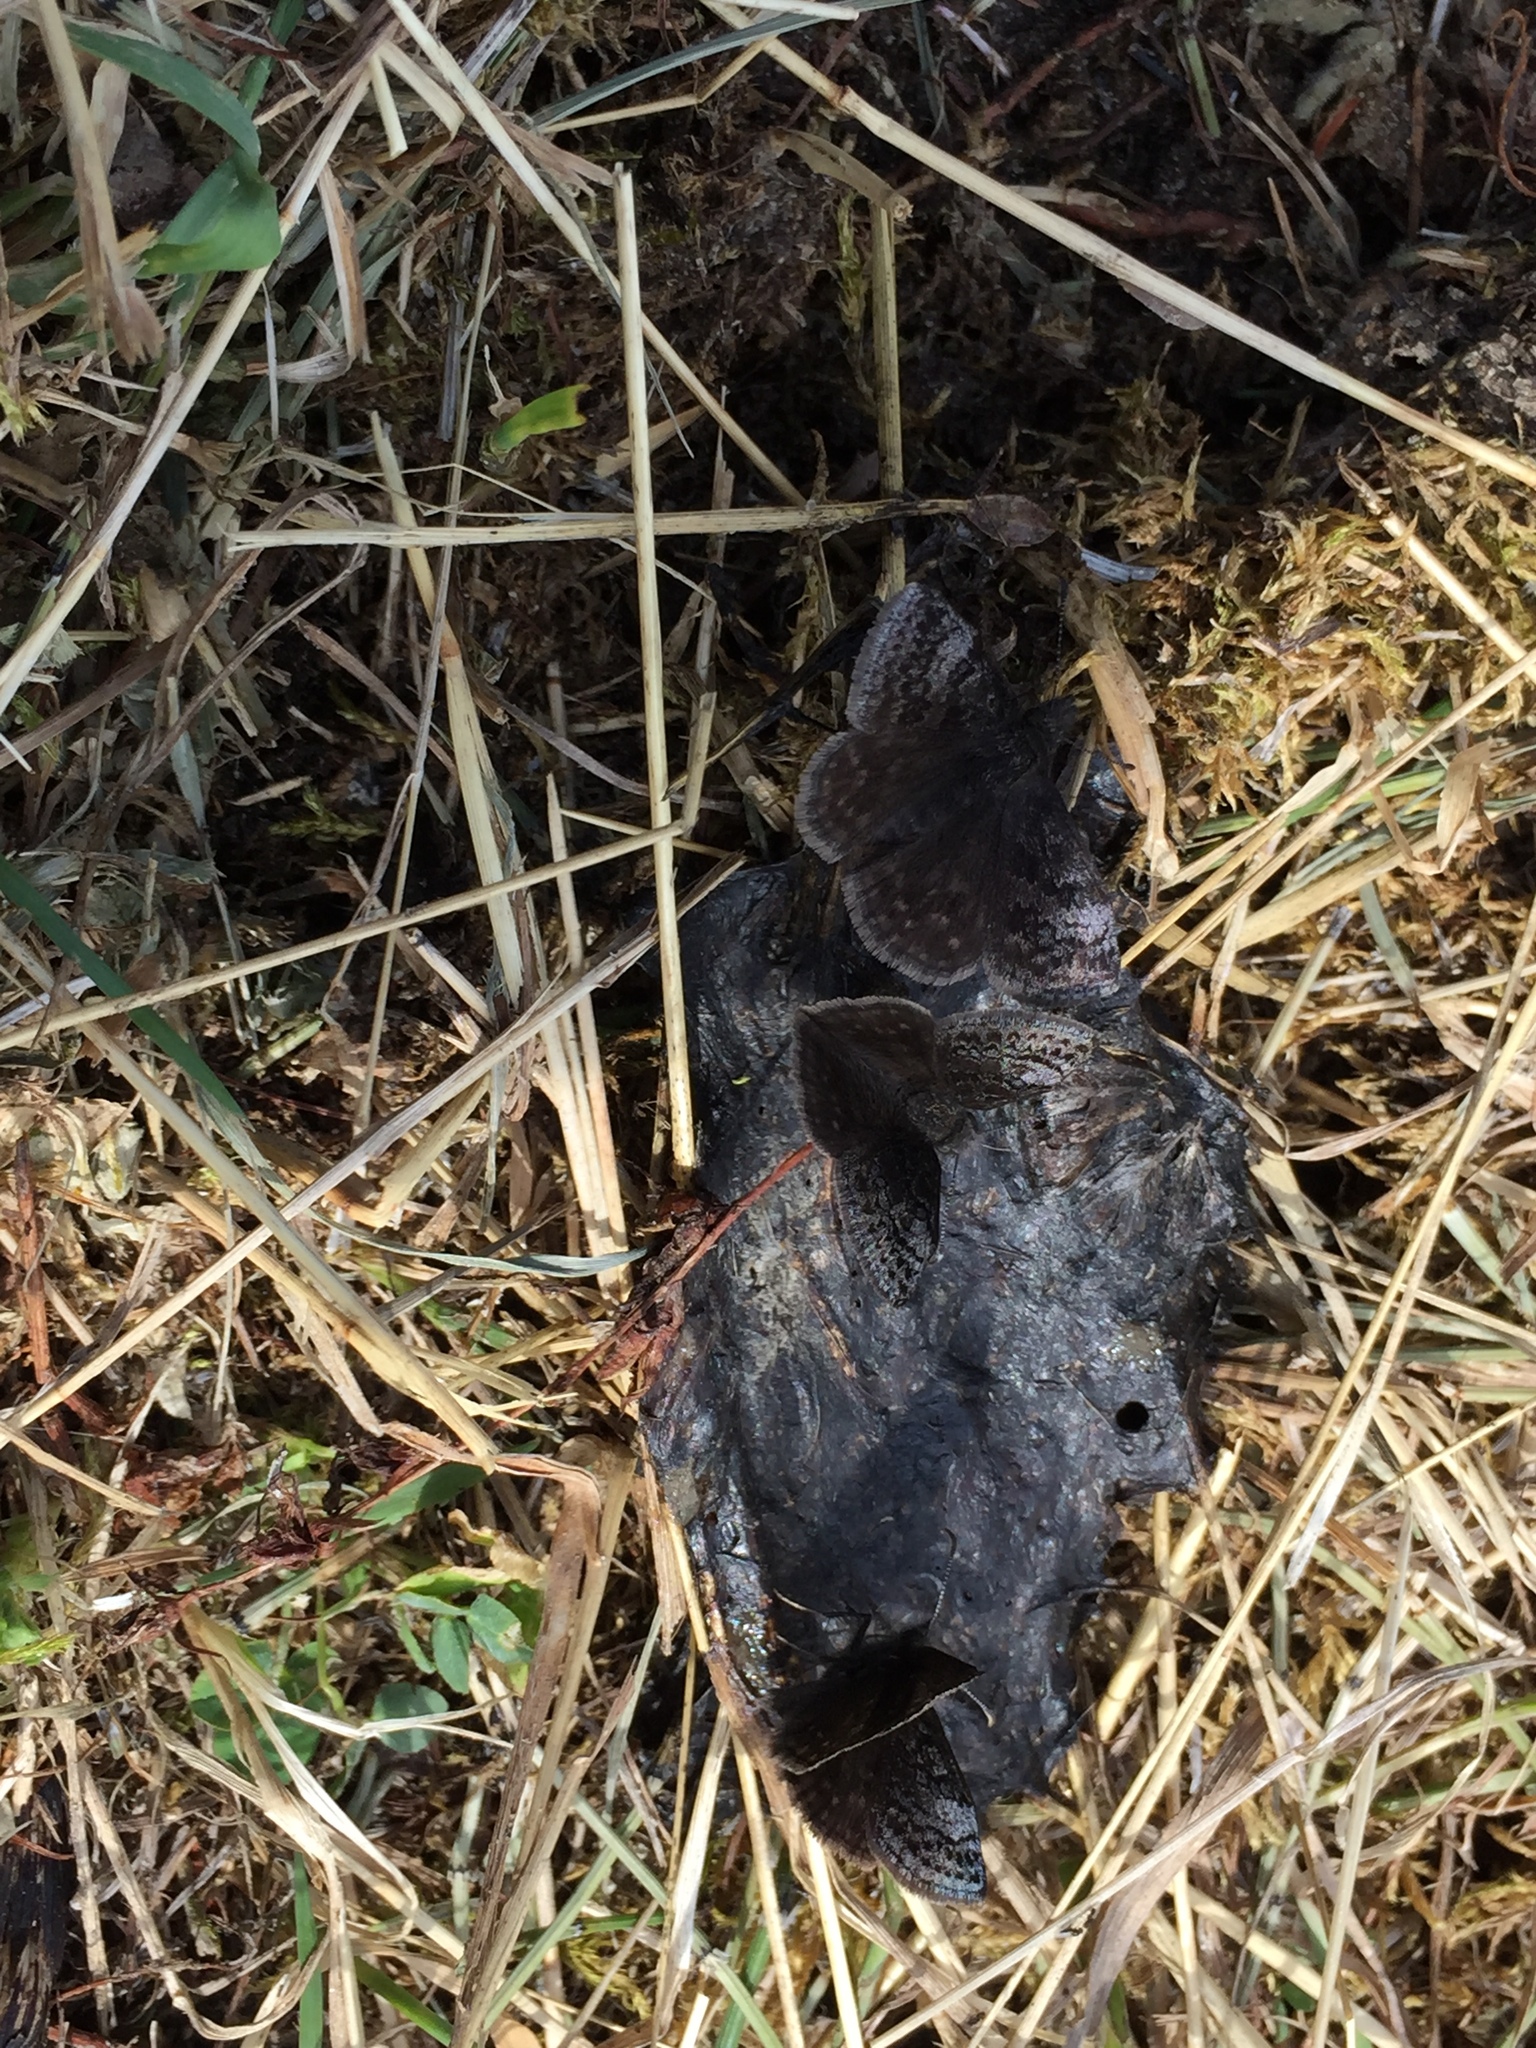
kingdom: Animalia
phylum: Arthropoda
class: Insecta
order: Lepidoptera
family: Hesperiidae
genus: Erynnis
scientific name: Erynnis icelus
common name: Dreamy duskywing
